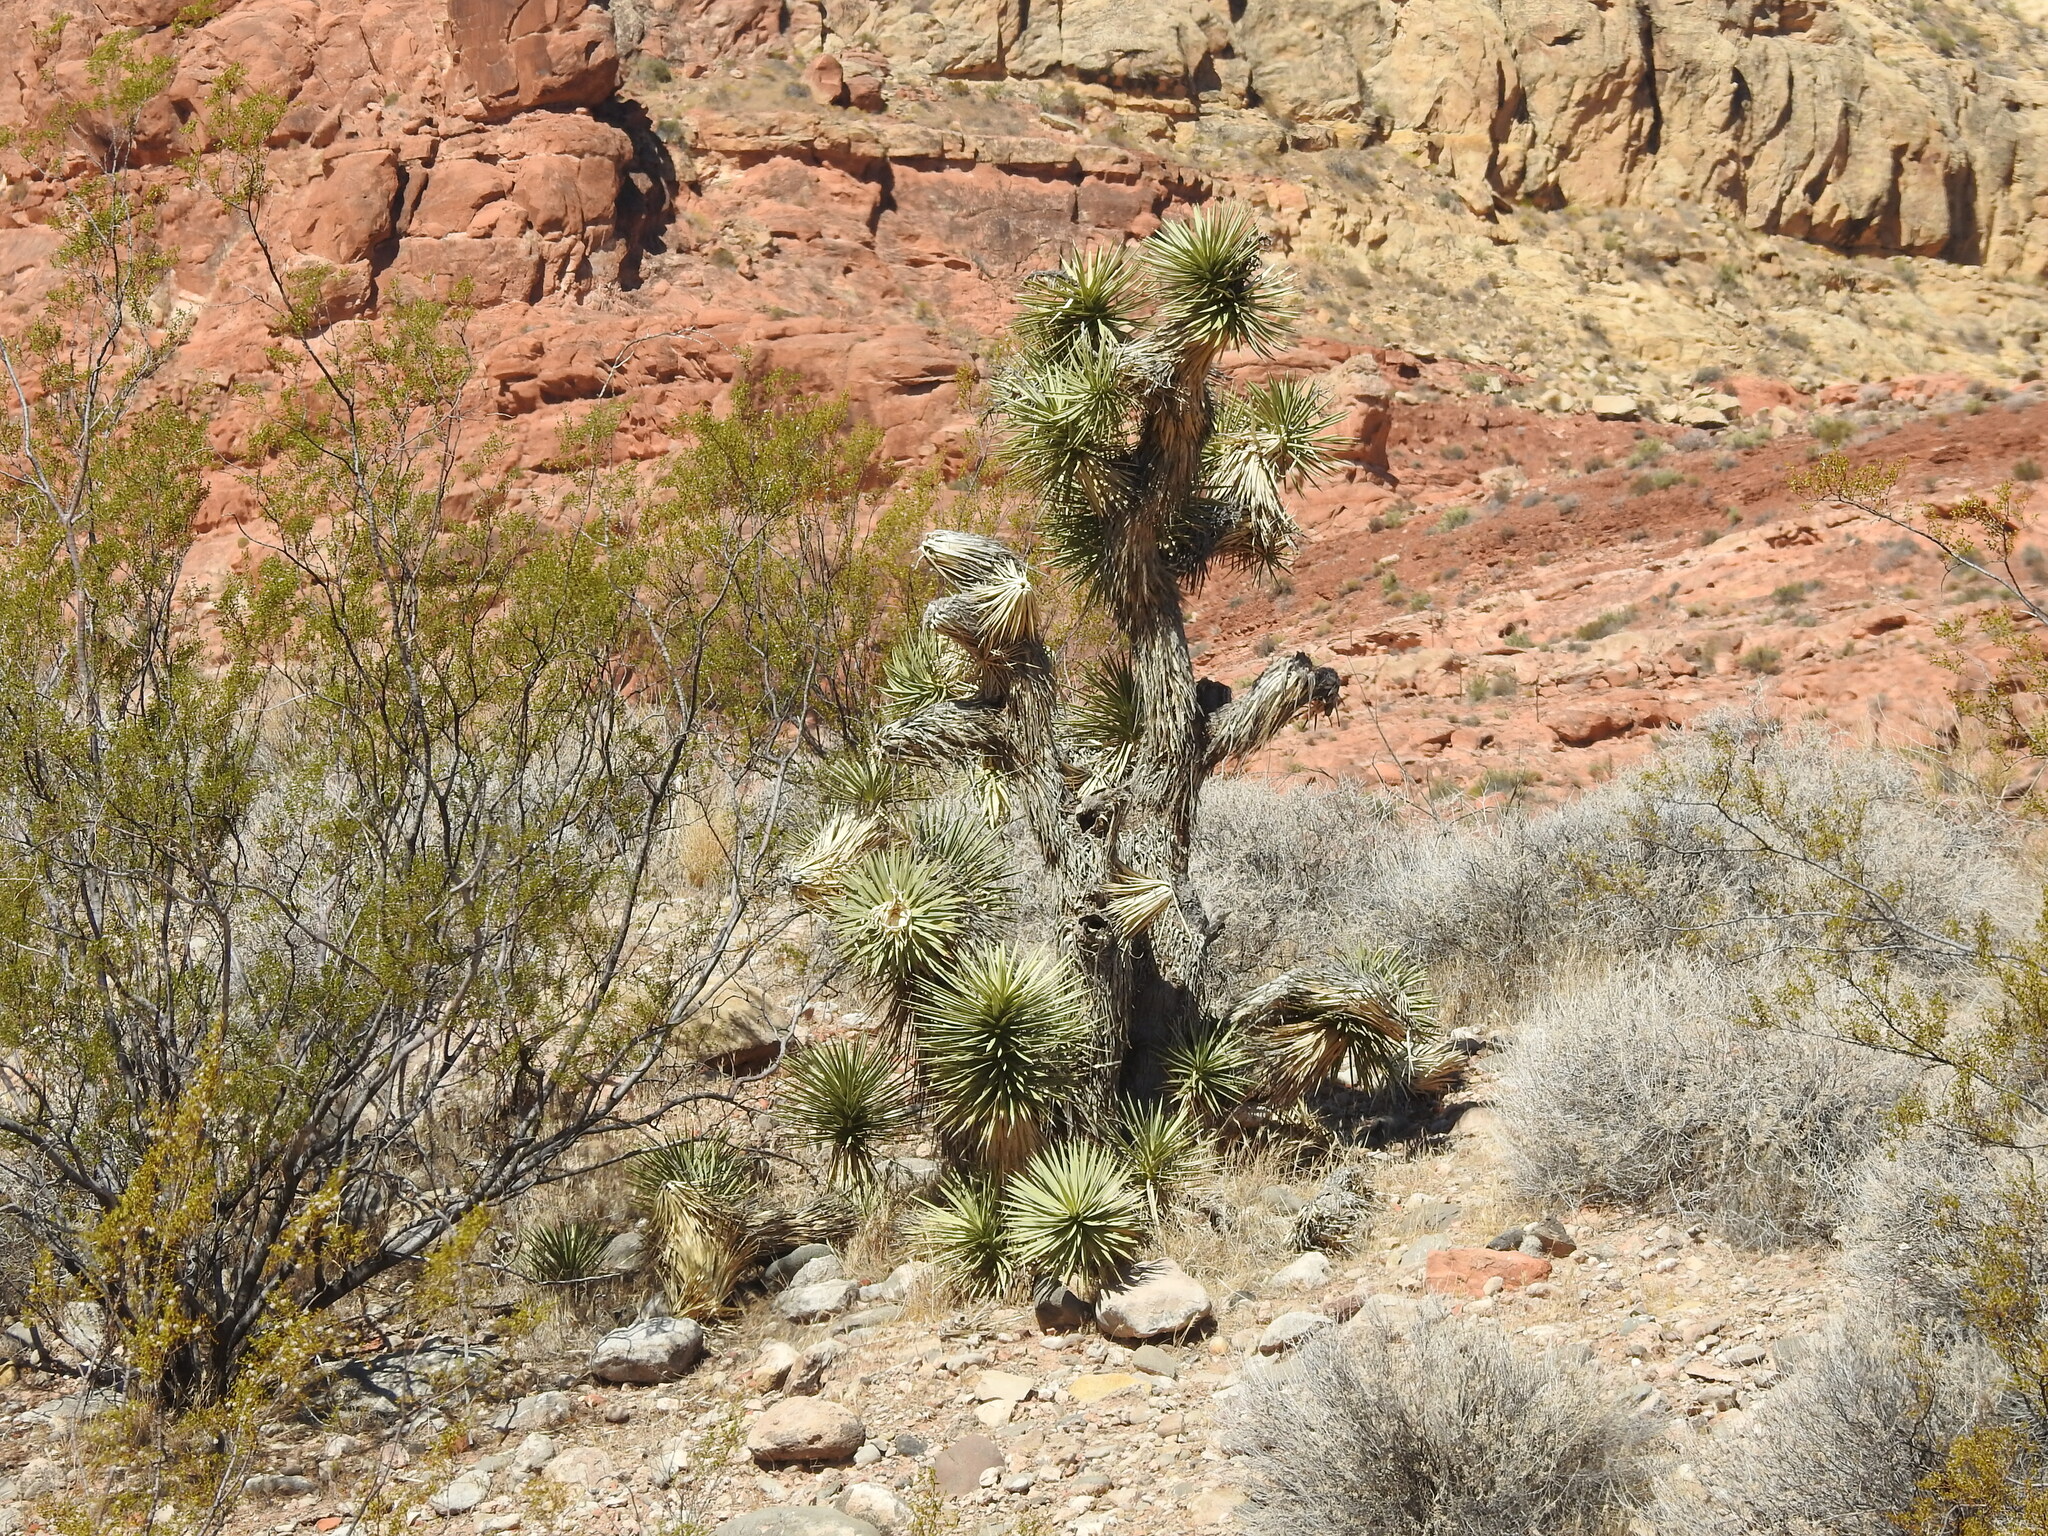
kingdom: Plantae
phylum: Tracheophyta
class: Liliopsida
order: Asparagales
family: Asparagaceae
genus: Yucca
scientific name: Yucca brevifolia
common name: Joshua tree
